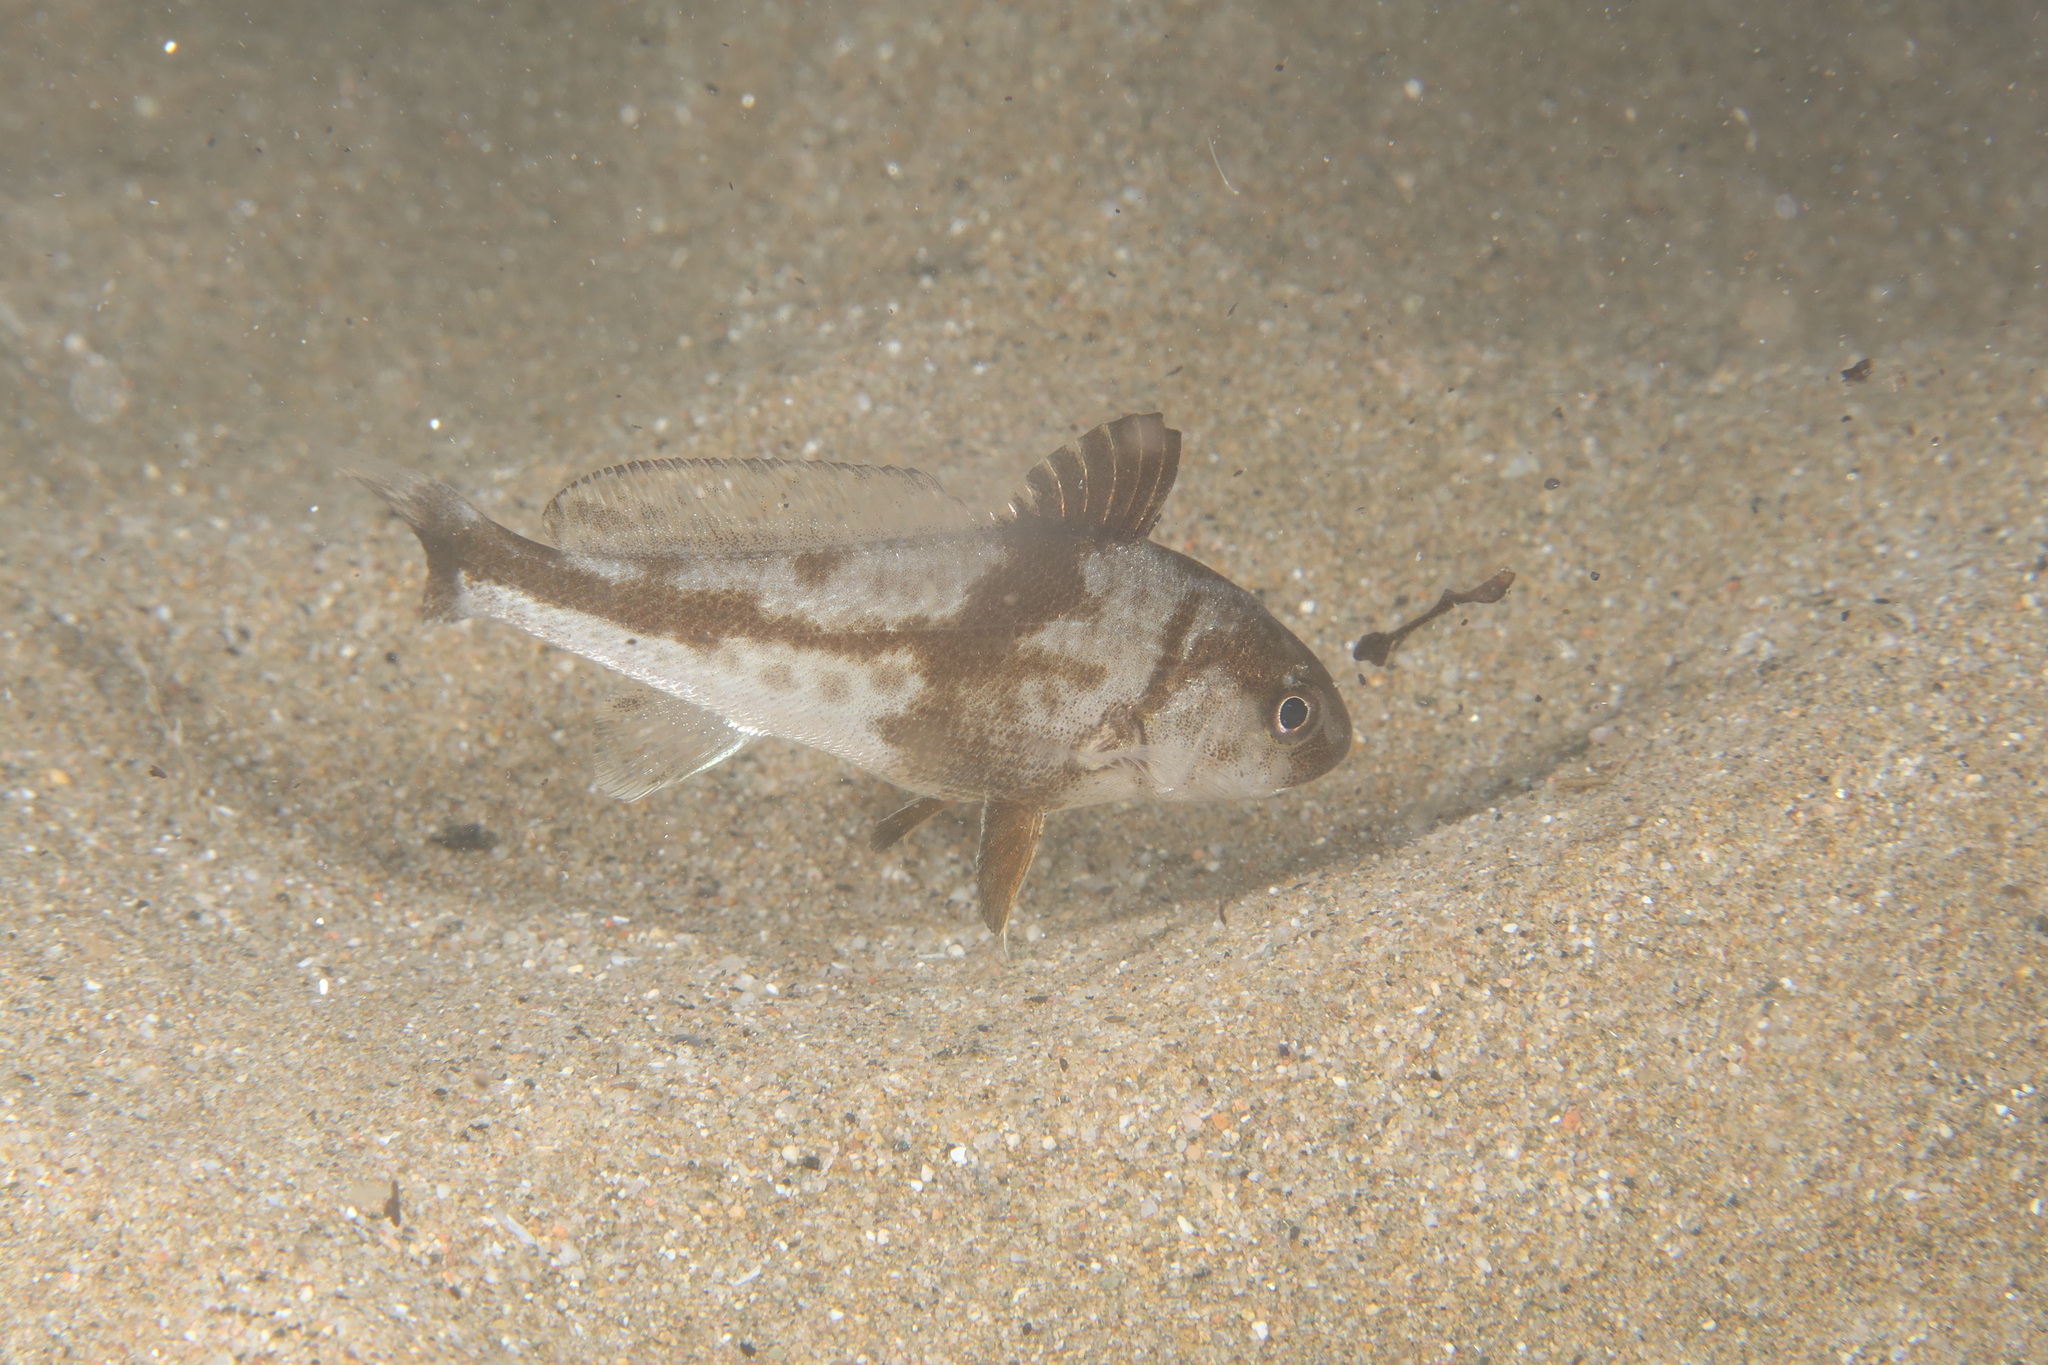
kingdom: Animalia
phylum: Chordata
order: Perciformes
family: Sciaenidae
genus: Umbrina
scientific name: Umbrina cirrosa
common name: Shi drum
